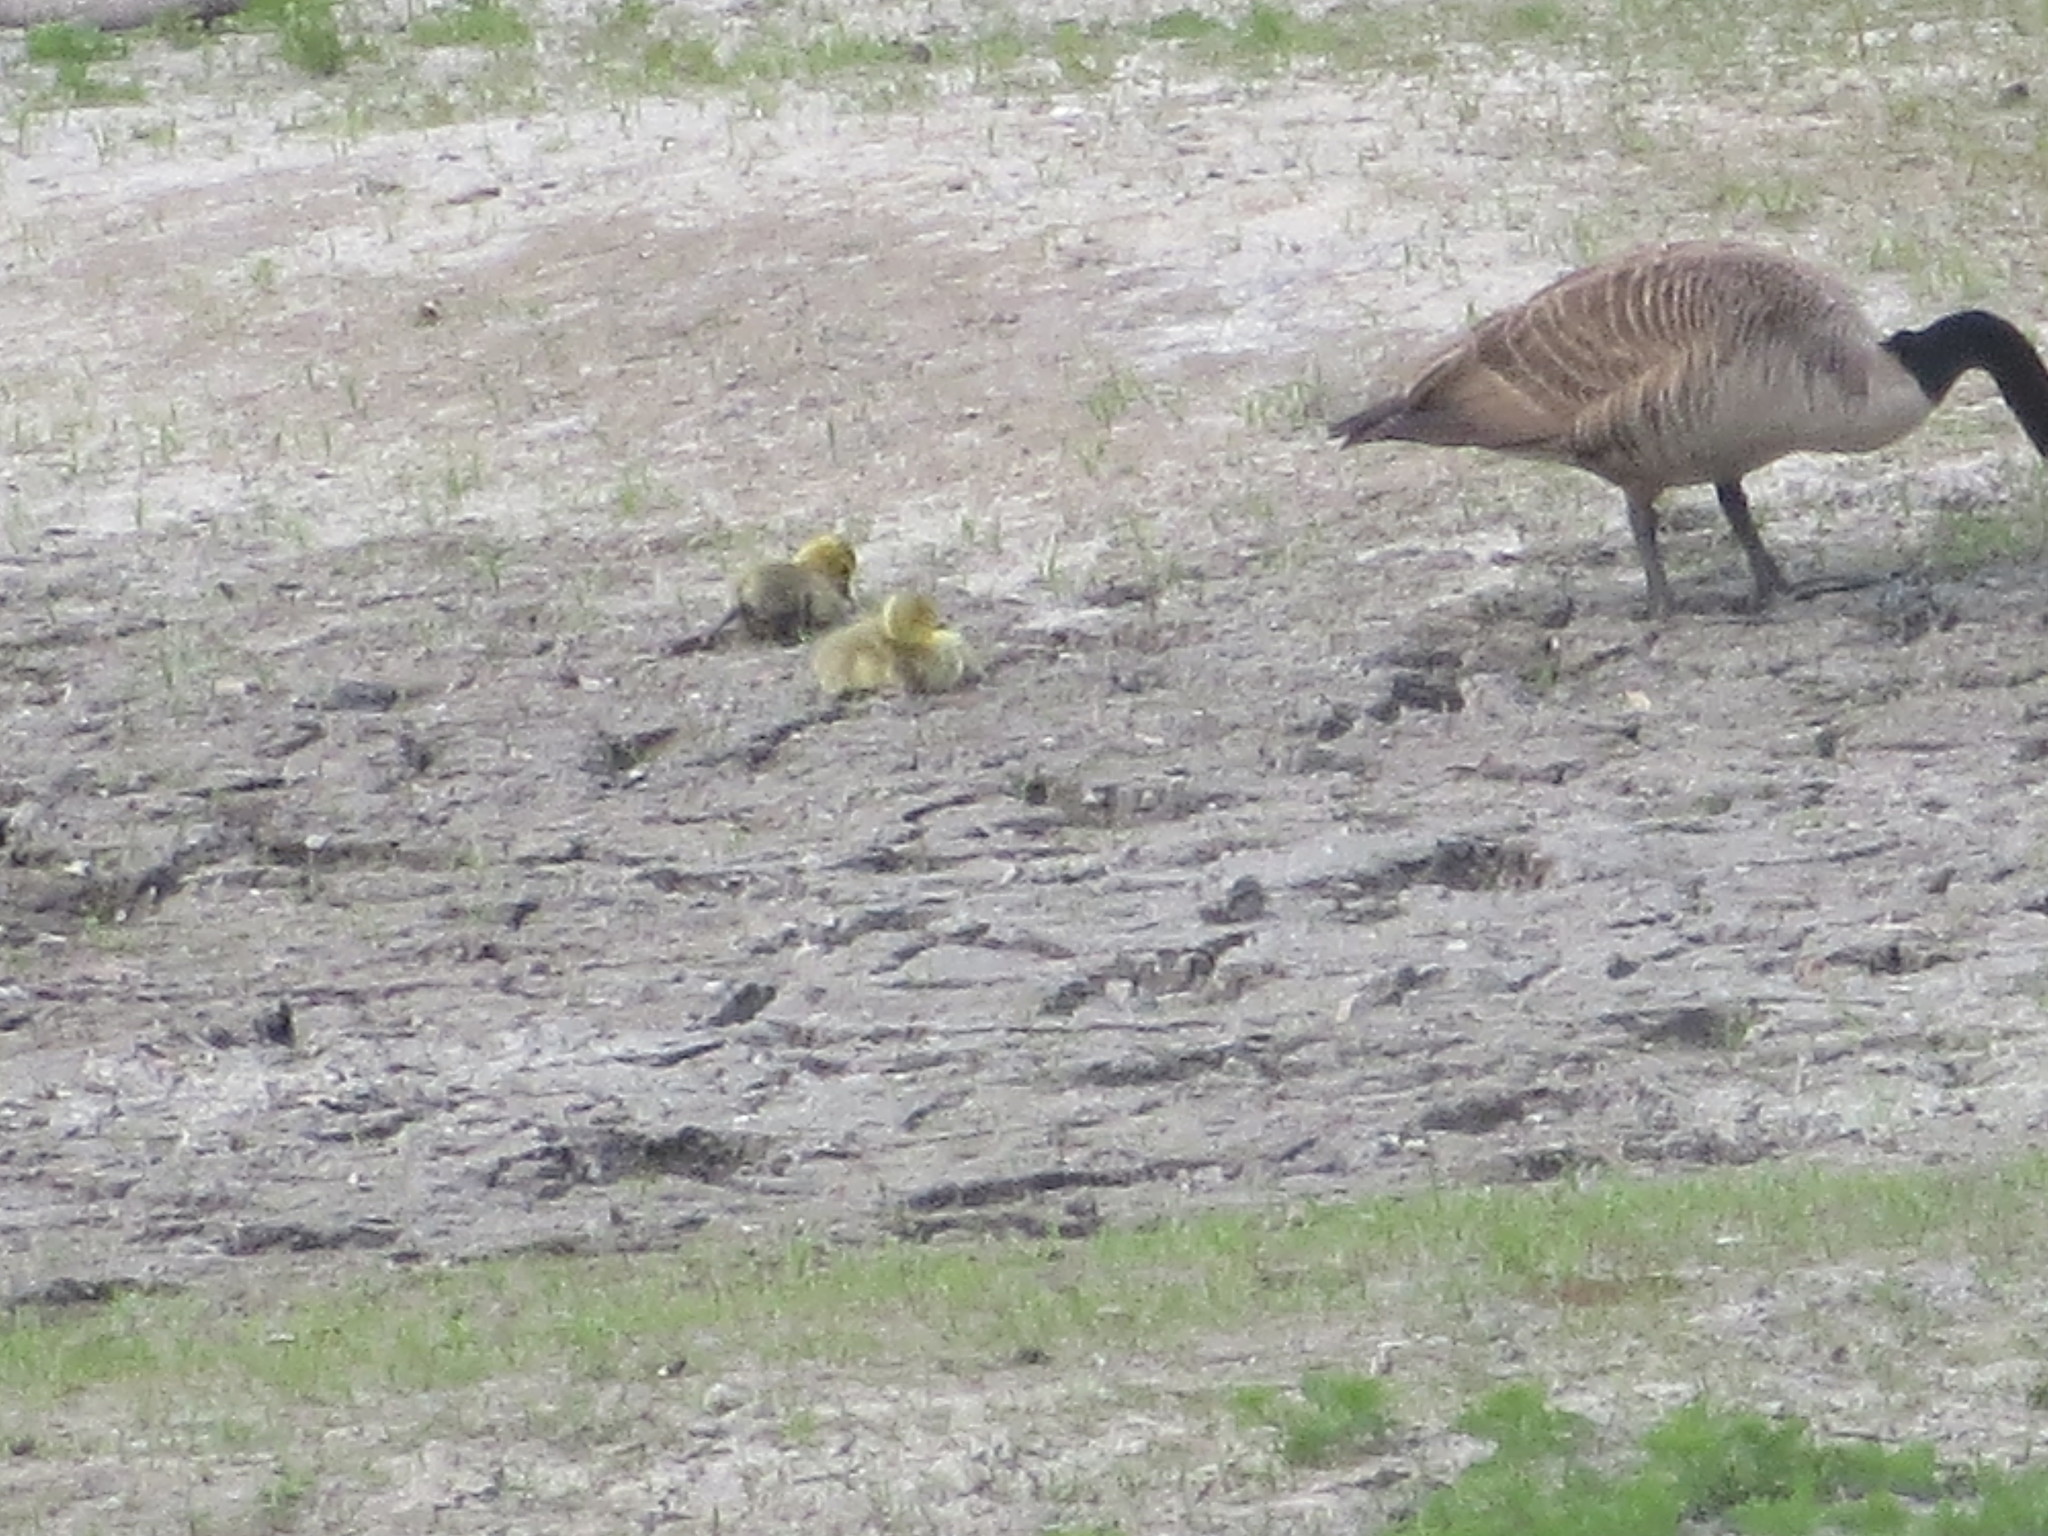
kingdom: Animalia
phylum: Chordata
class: Aves
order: Anseriformes
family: Anatidae
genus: Branta
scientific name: Branta canadensis
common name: Canada goose
